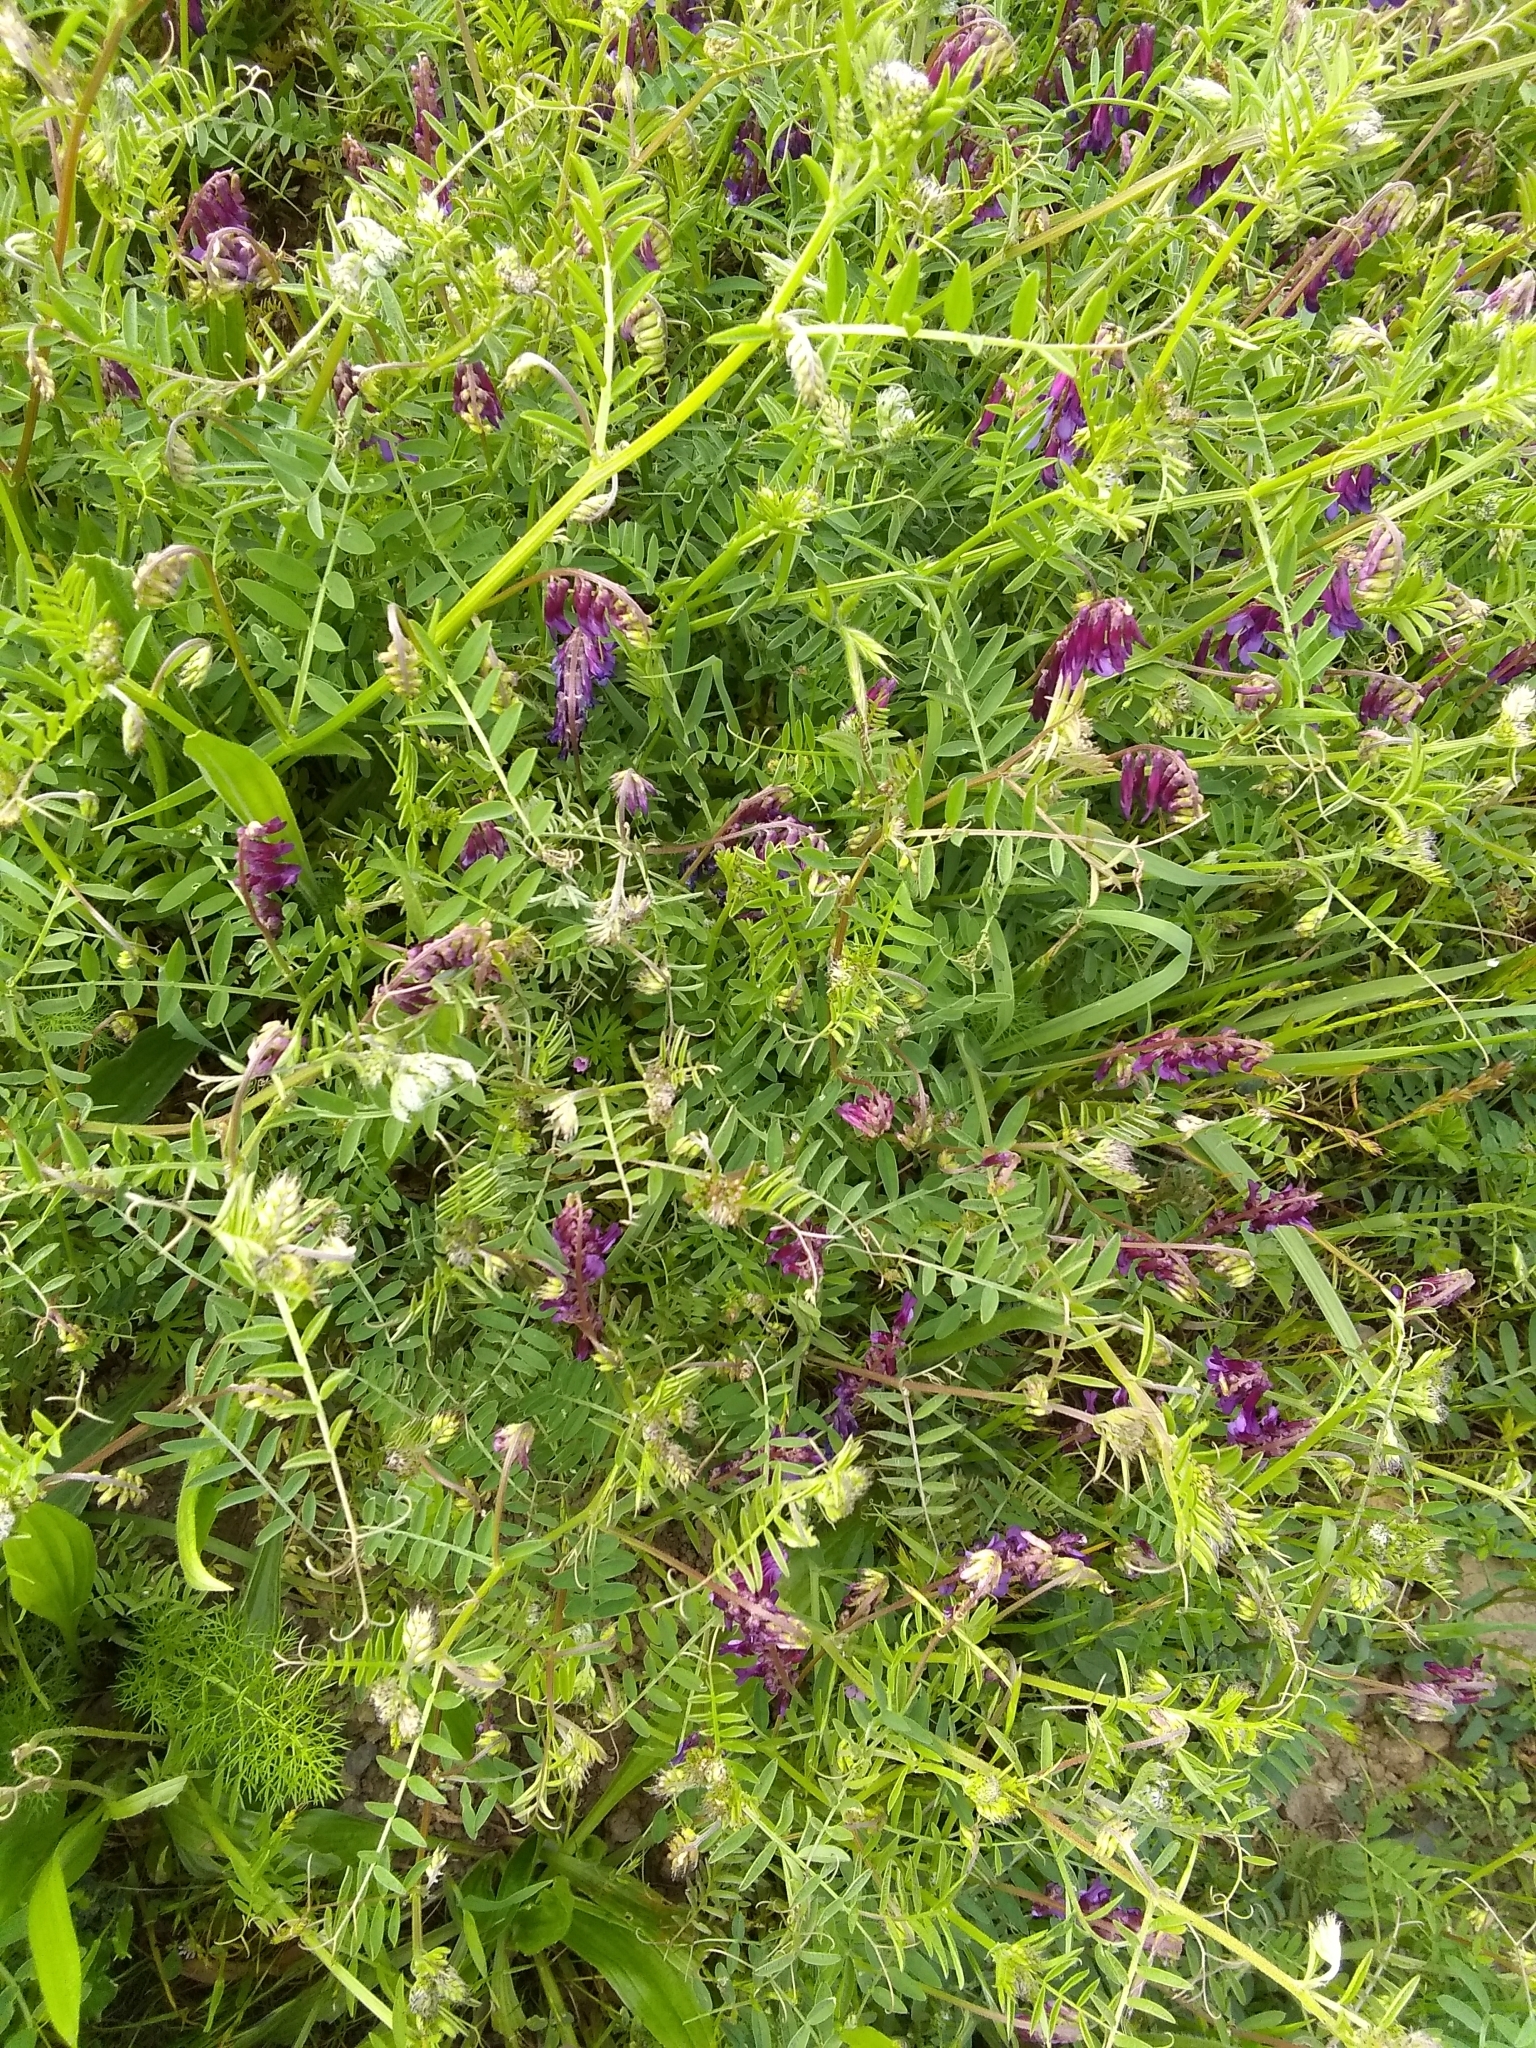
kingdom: Plantae
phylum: Tracheophyta
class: Magnoliopsida
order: Fabales
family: Fabaceae
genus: Vicia
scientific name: Vicia villosa
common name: Fodder vetch
